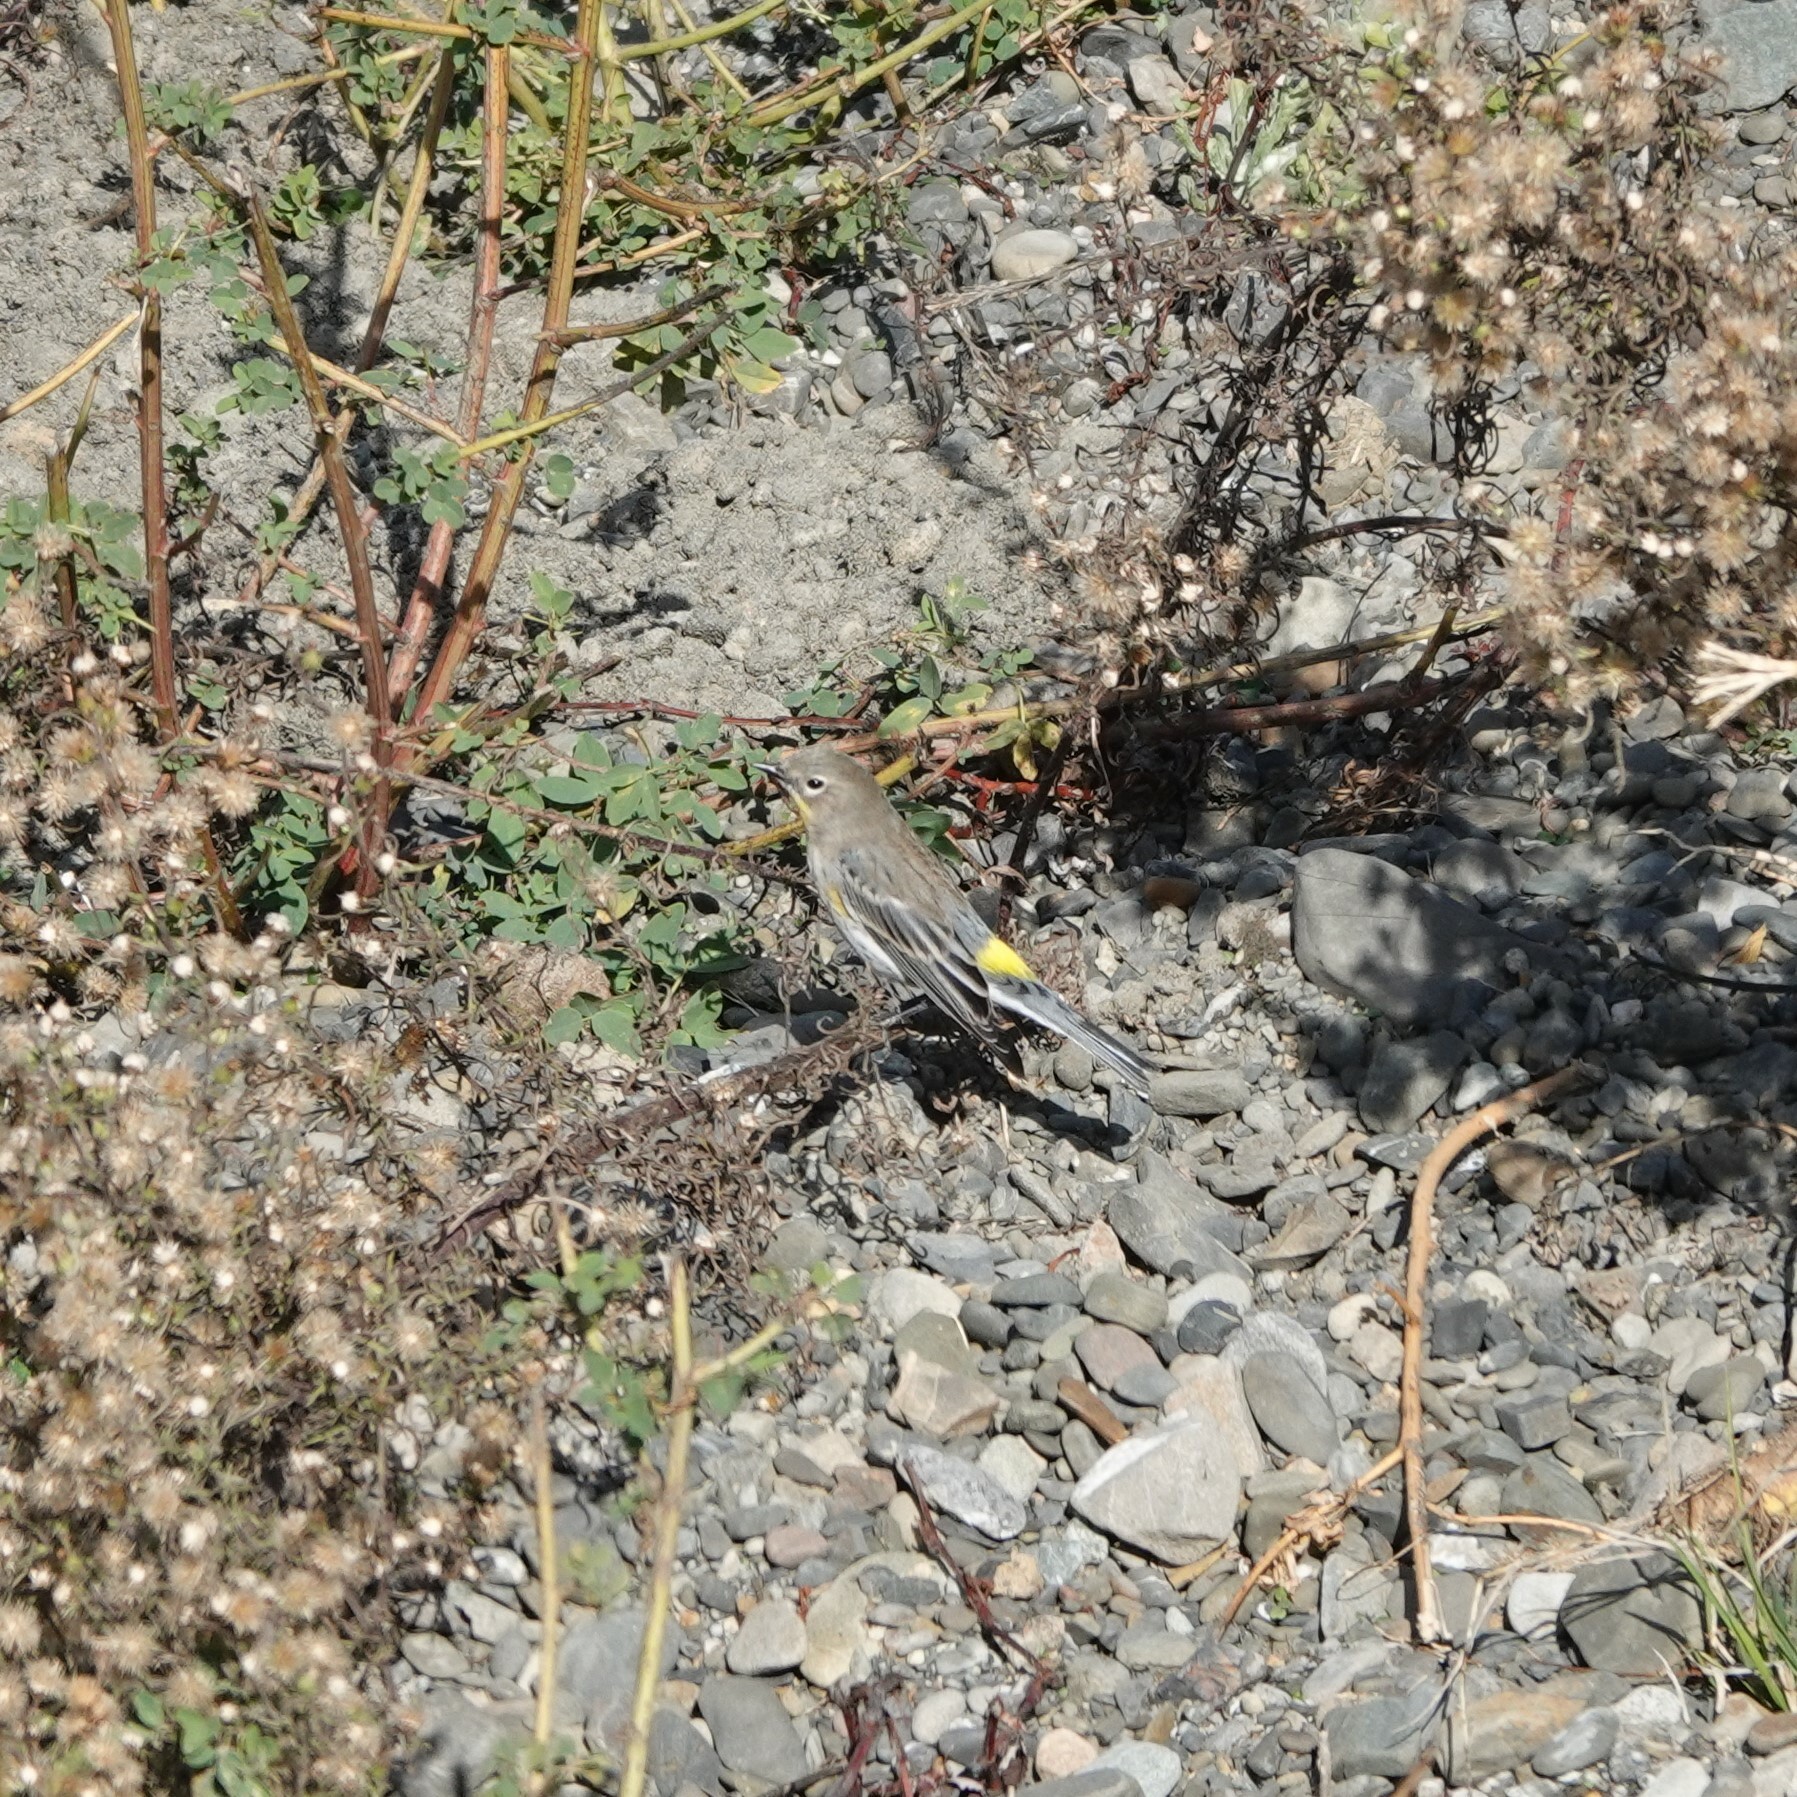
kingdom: Animalia
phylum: Chordata
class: Aves
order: Passeriformes
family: Parulidae
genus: Setophaga
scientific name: Setophaga coronata
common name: Myrtle warbler
